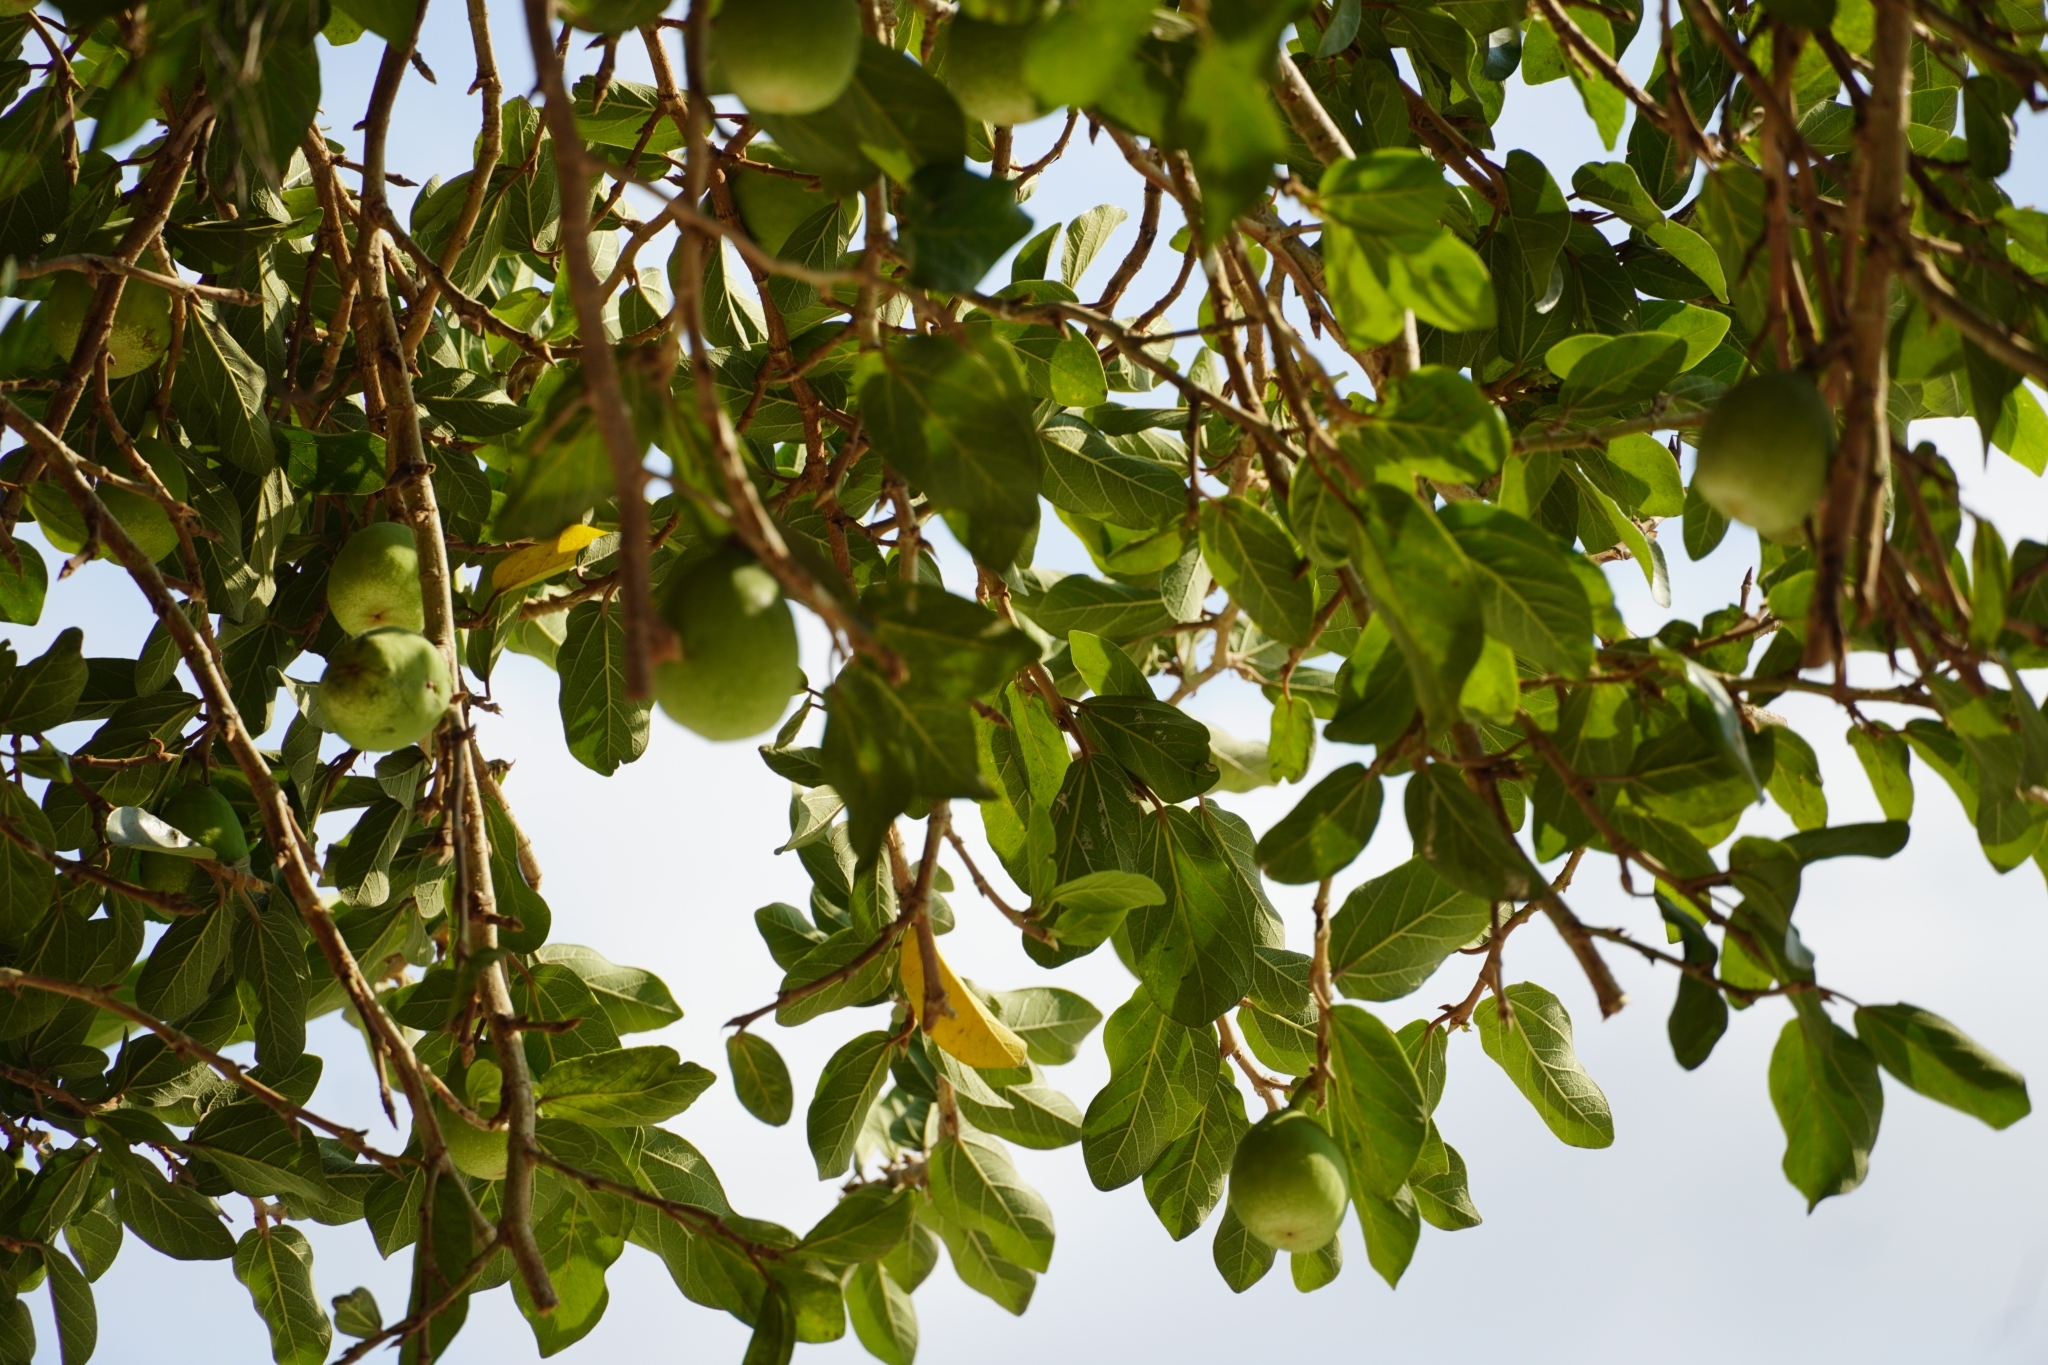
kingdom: Plantae
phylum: Tracheophyta
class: Magnoliopsida
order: Rosales
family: Moraceae
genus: Ficus
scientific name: Ficus pumila
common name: Climbingfig
